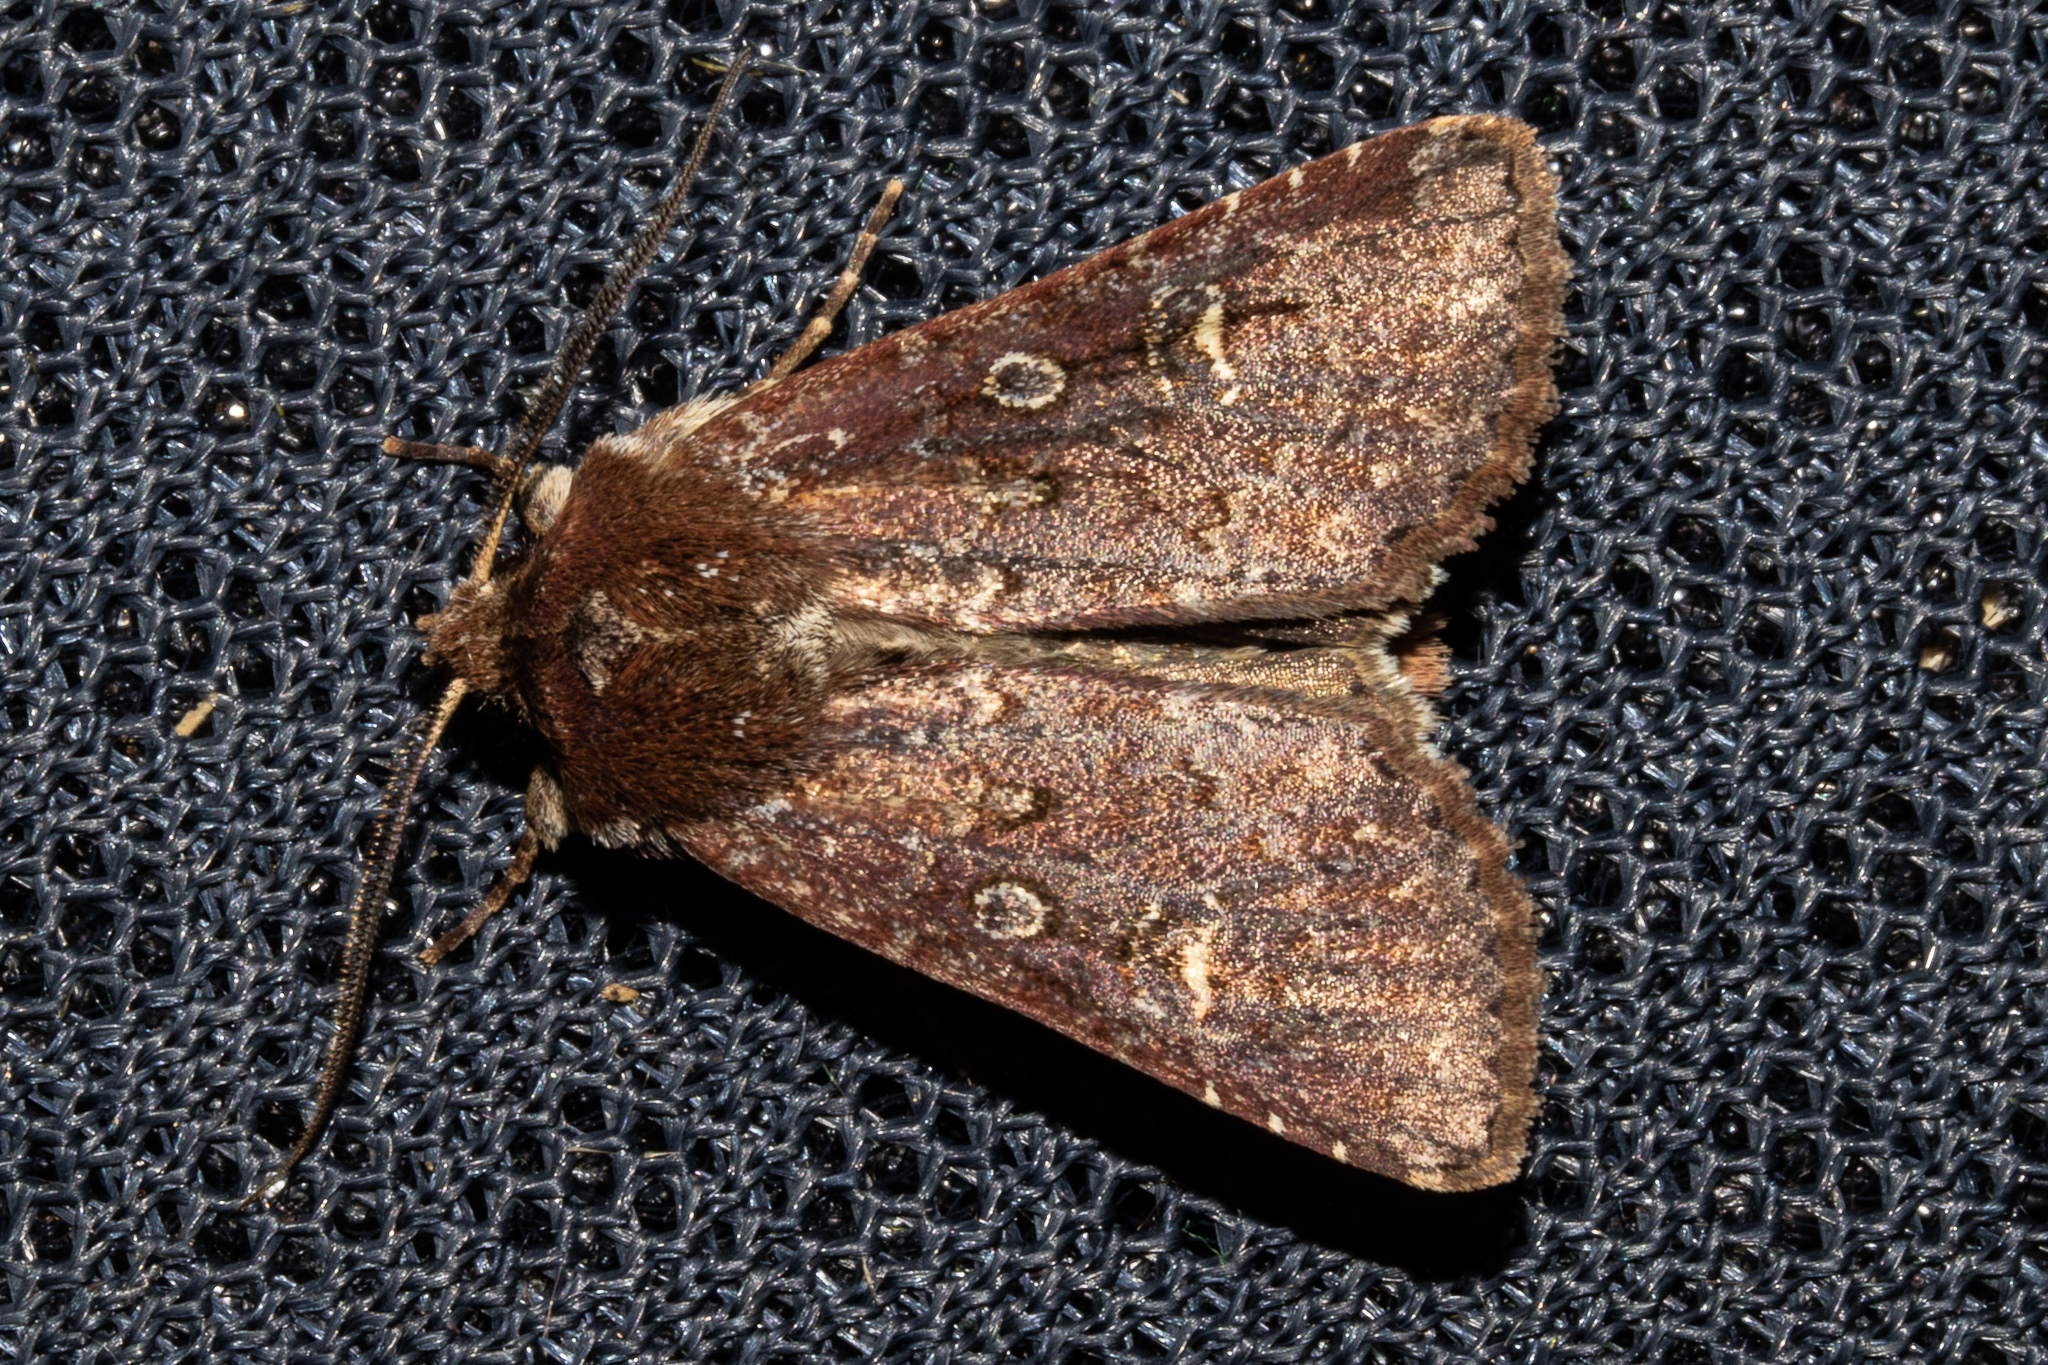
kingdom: Animalia
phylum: Arthropoda
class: Insecta
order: Lepidoptera
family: Noctuidae
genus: Ichneutica
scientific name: Ichneutica agorastis
